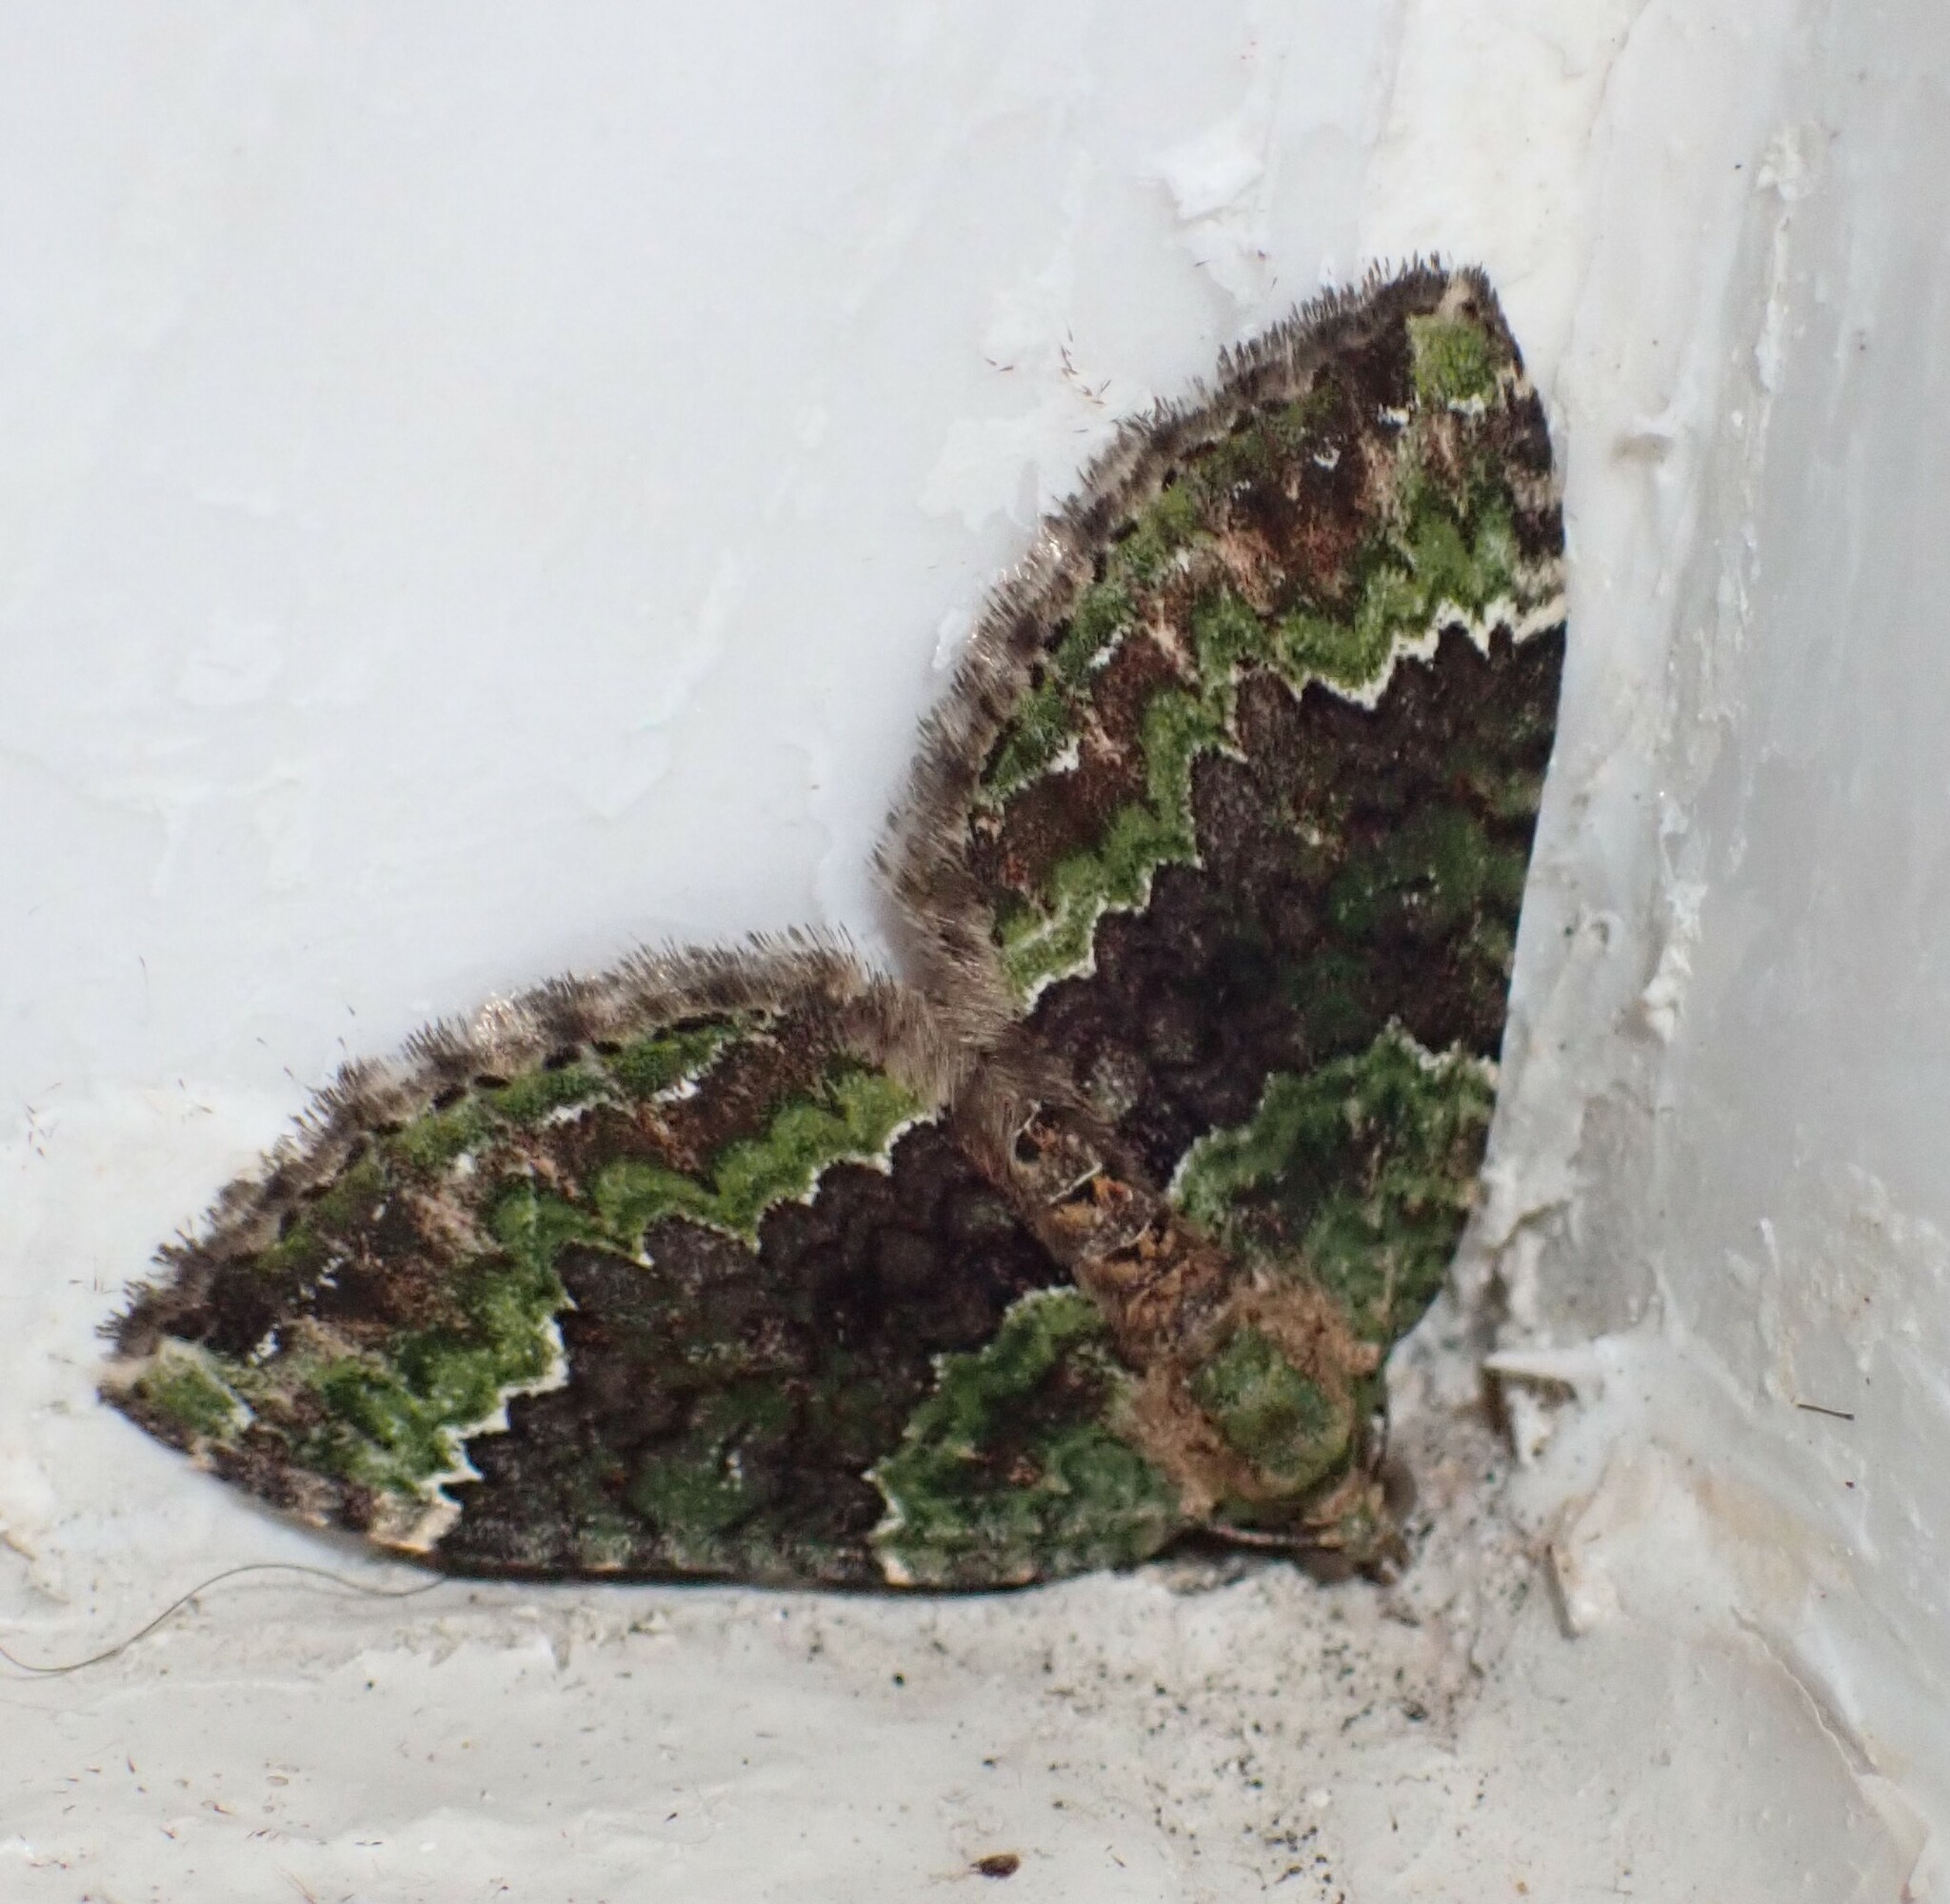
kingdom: Animalia
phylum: Arthropoda
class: Insecta
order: Lepidoptera
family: Geometridae
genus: Xanthorhoe
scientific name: Xanthorhoe poseata
